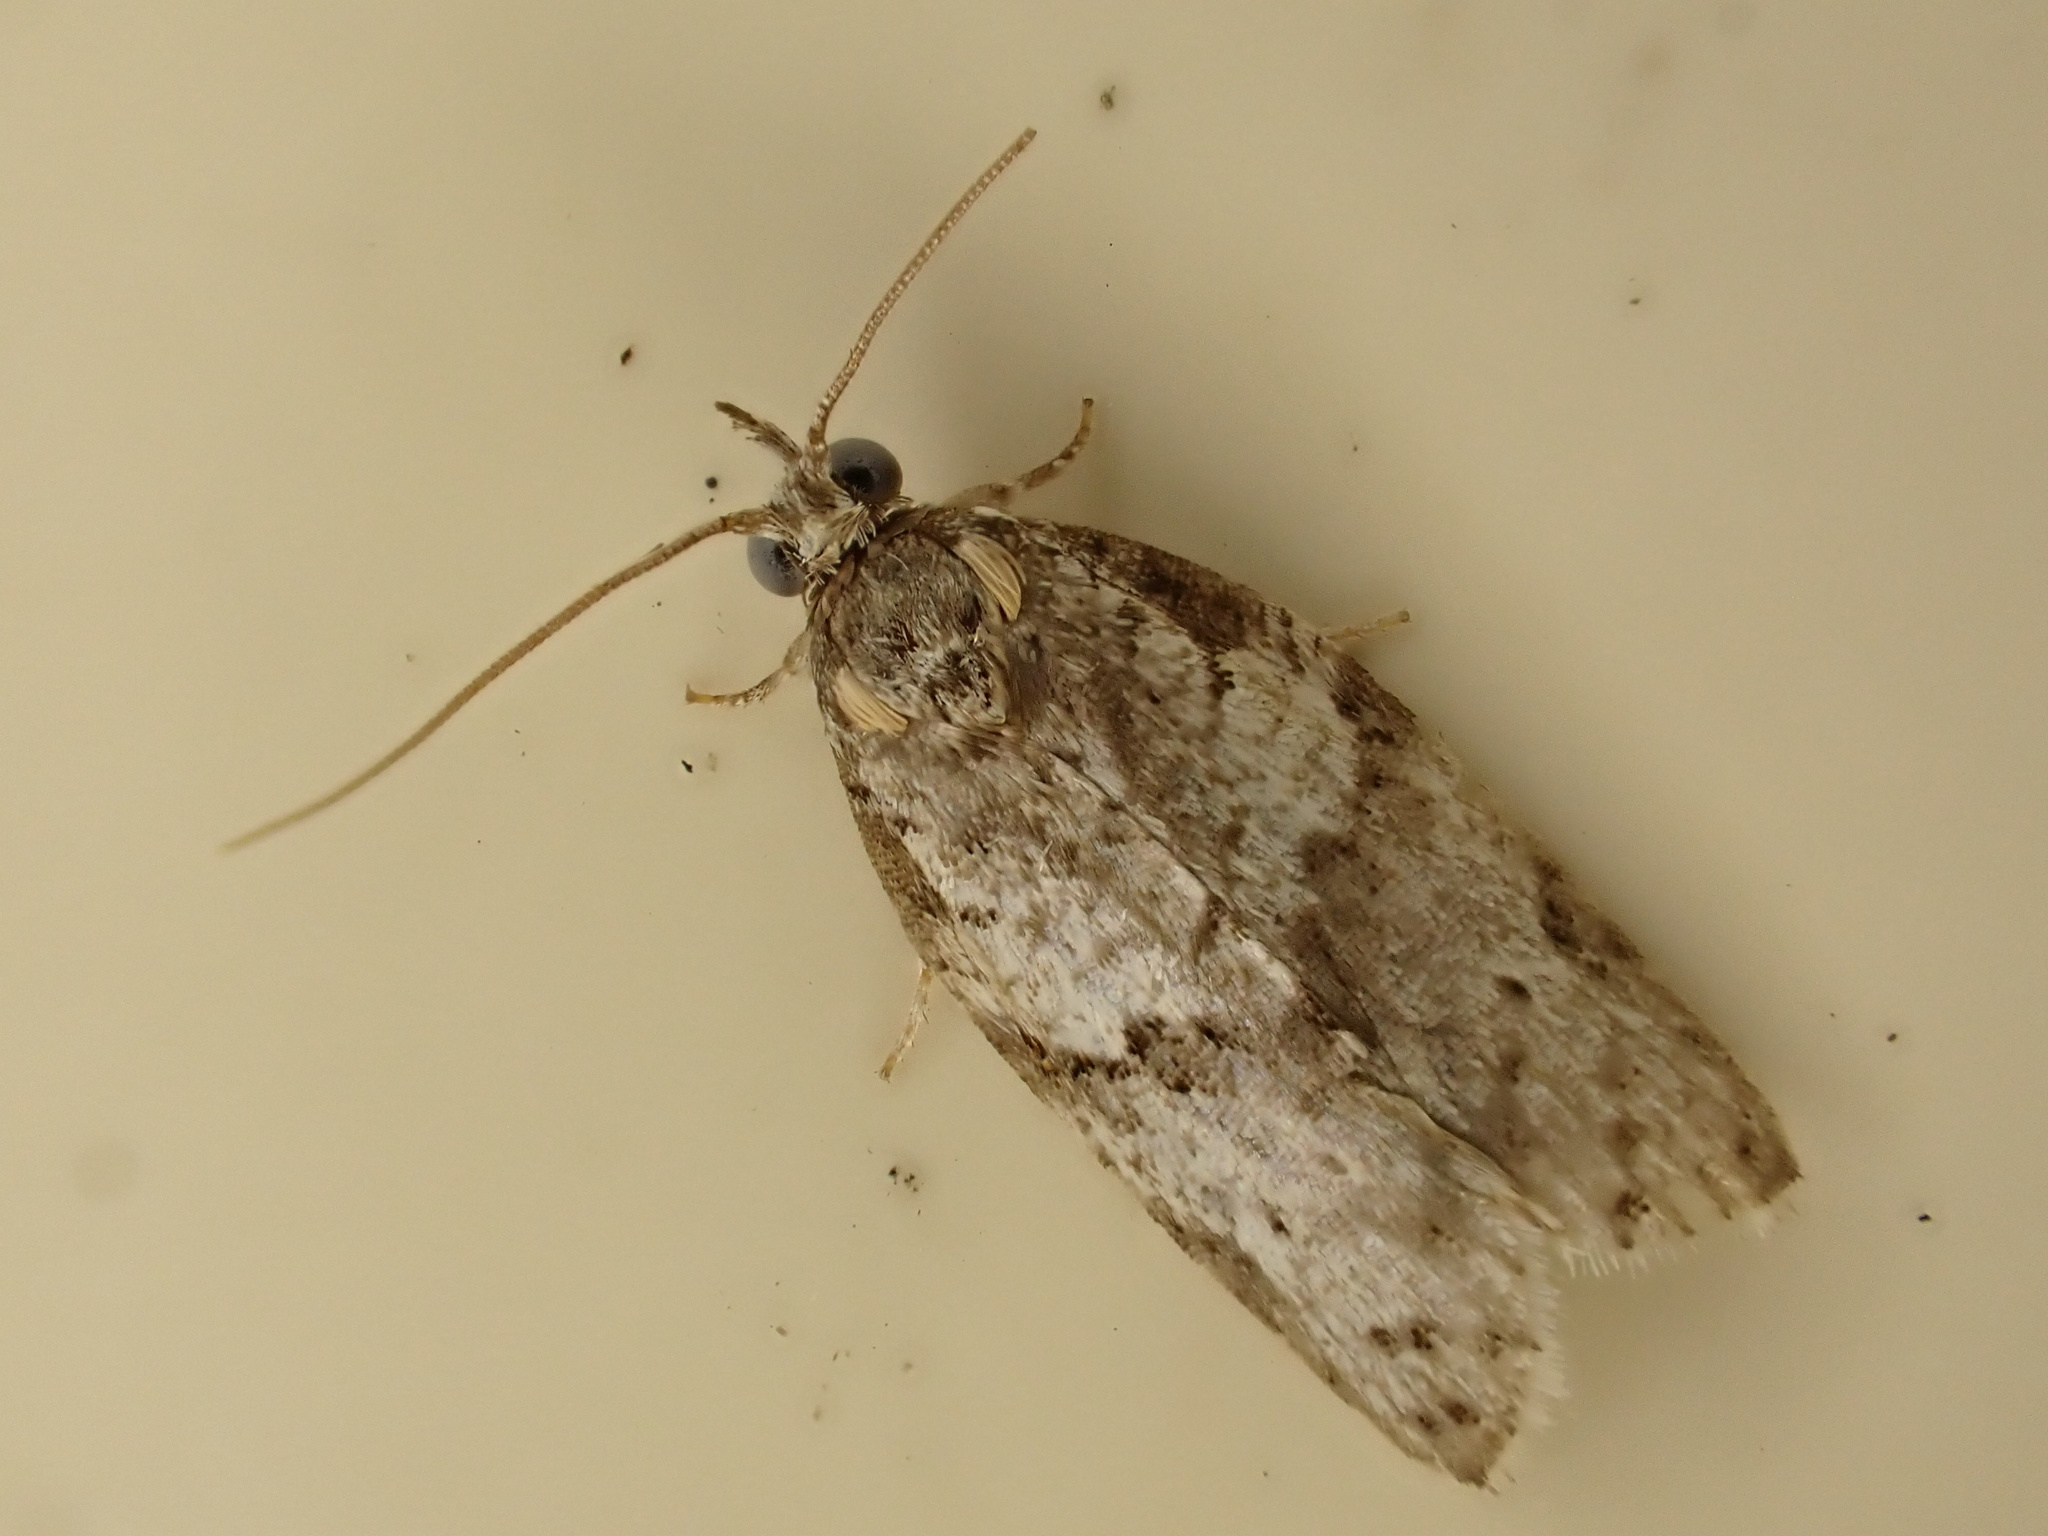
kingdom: Animalia
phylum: Arthropoda
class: Insecta
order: Lepidoptera
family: Tortricidae
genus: Isotenes
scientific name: Isotenes miserana
